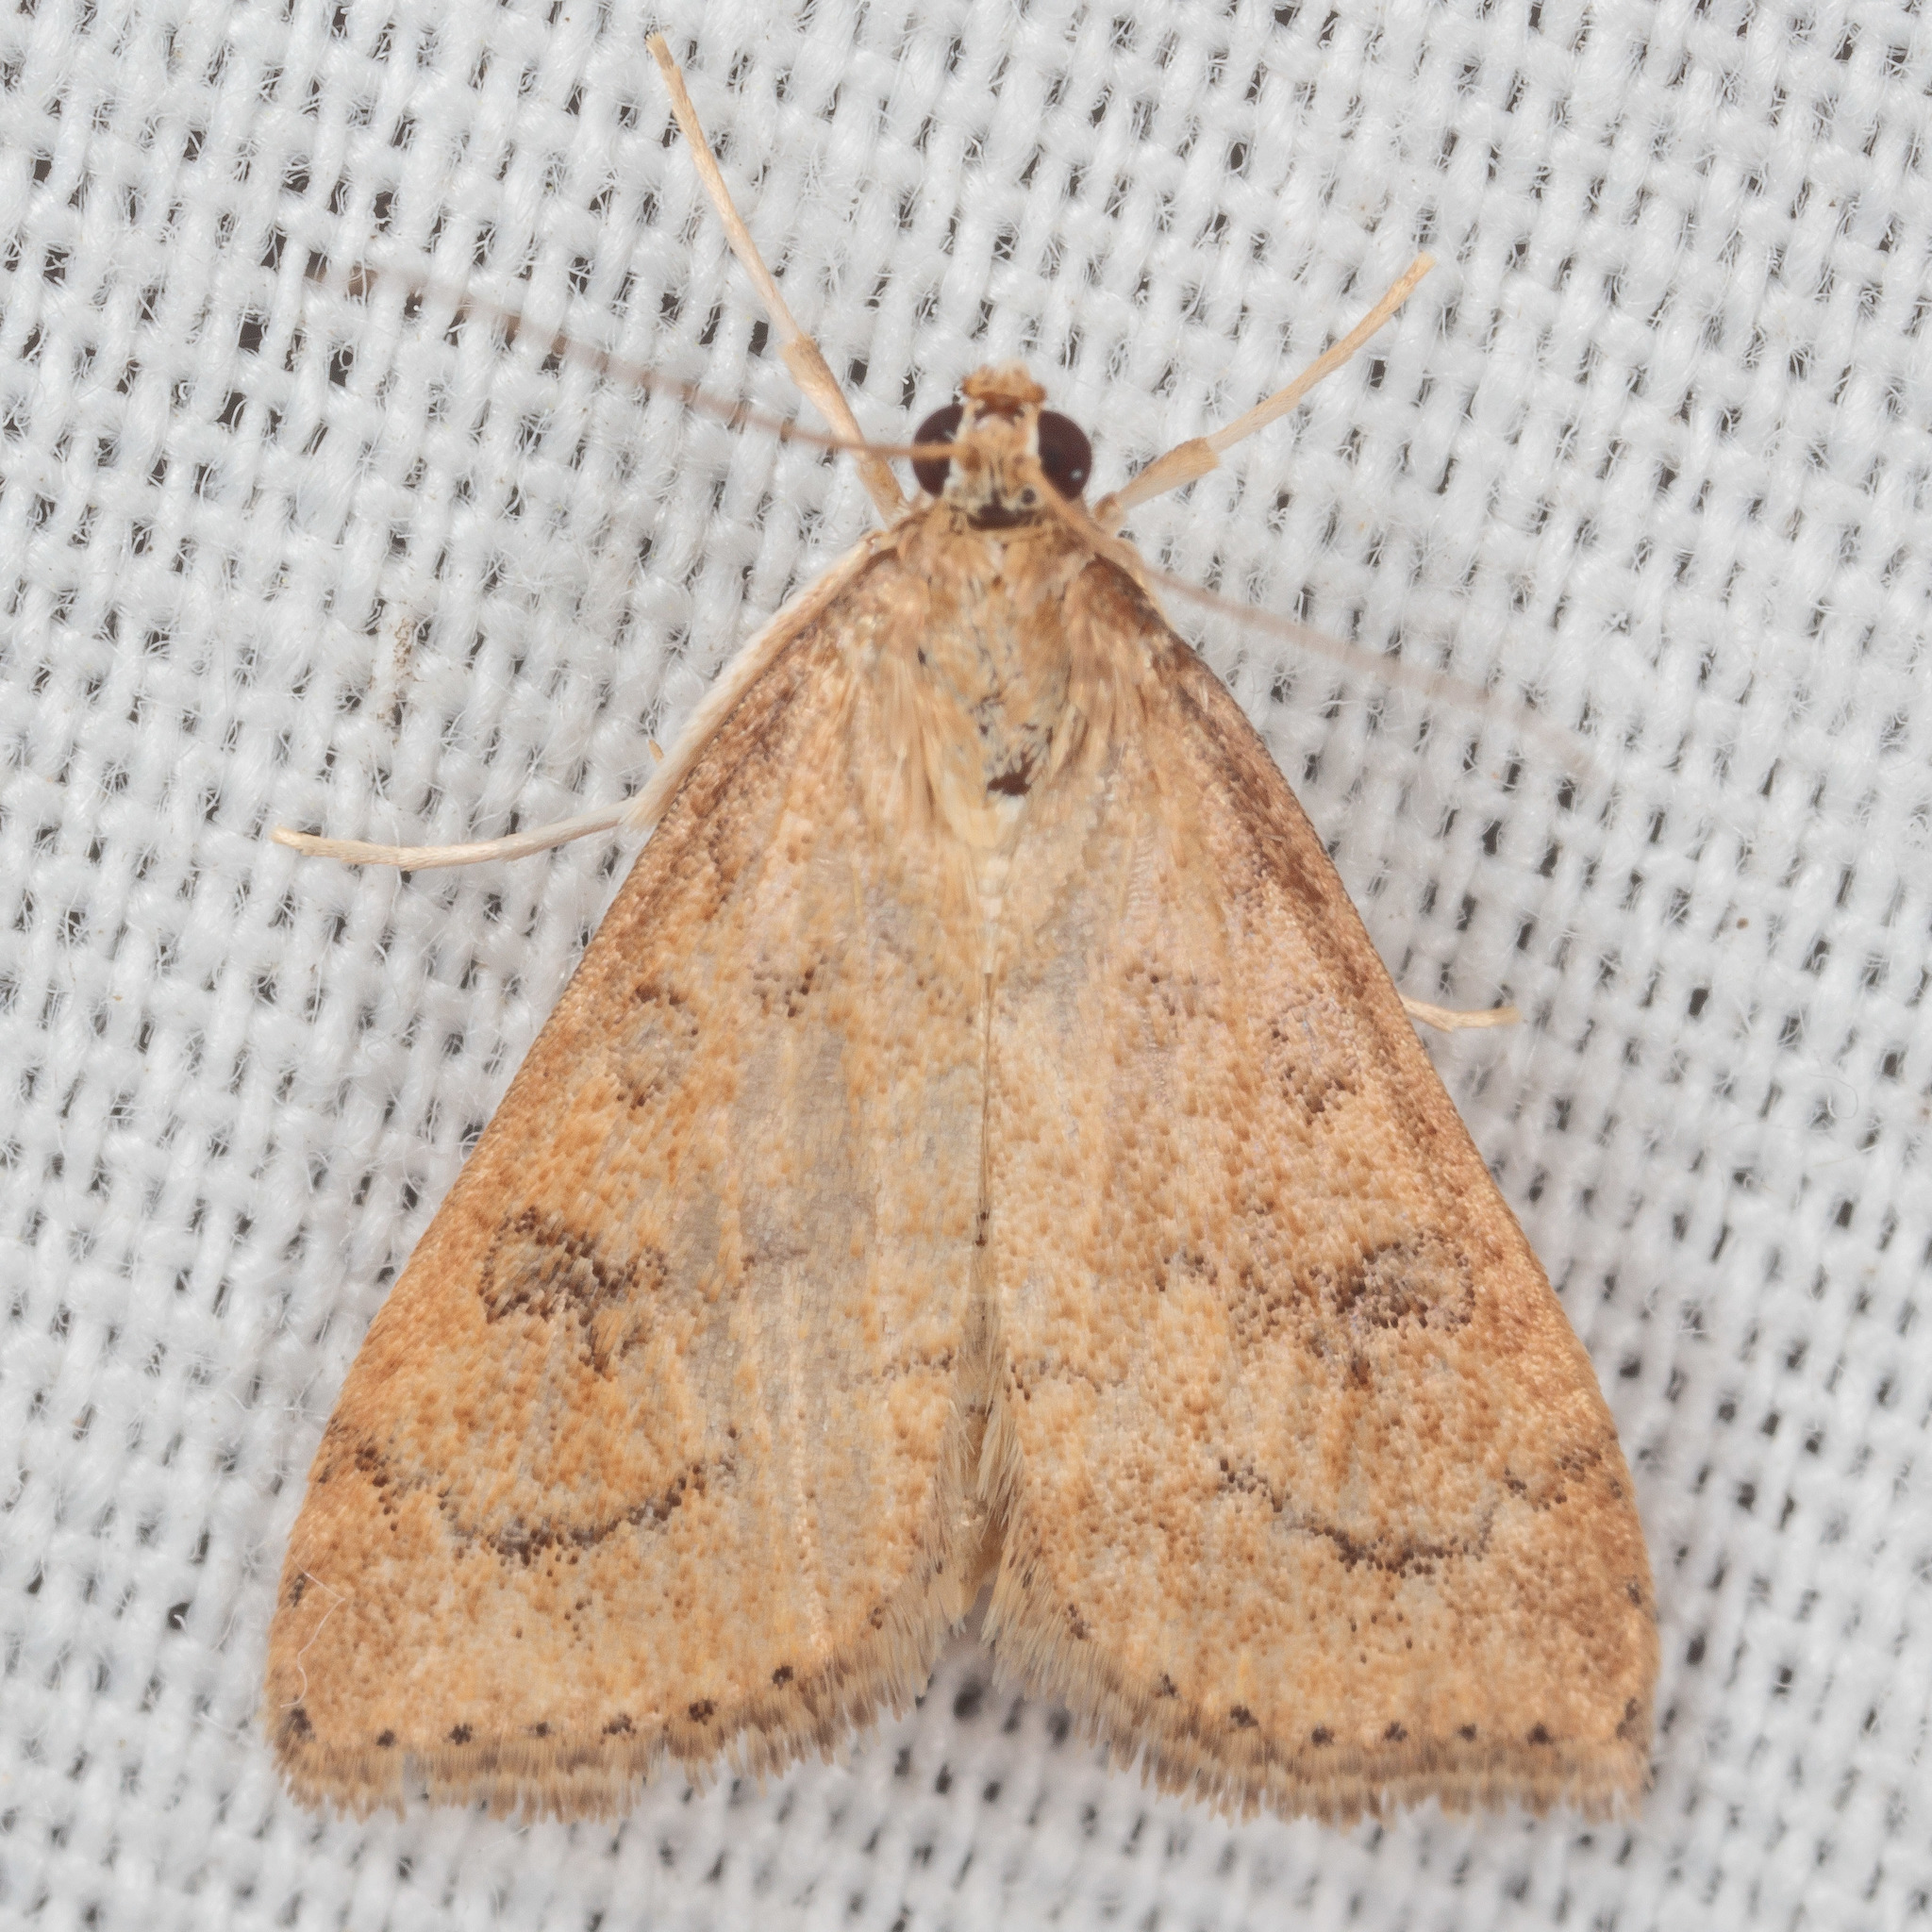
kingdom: Animalia
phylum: Arthropoda
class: Insecta
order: Lepidoptera
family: Crambidae
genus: Udea
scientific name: Udea rubigalis
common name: Celery leaftier moth
